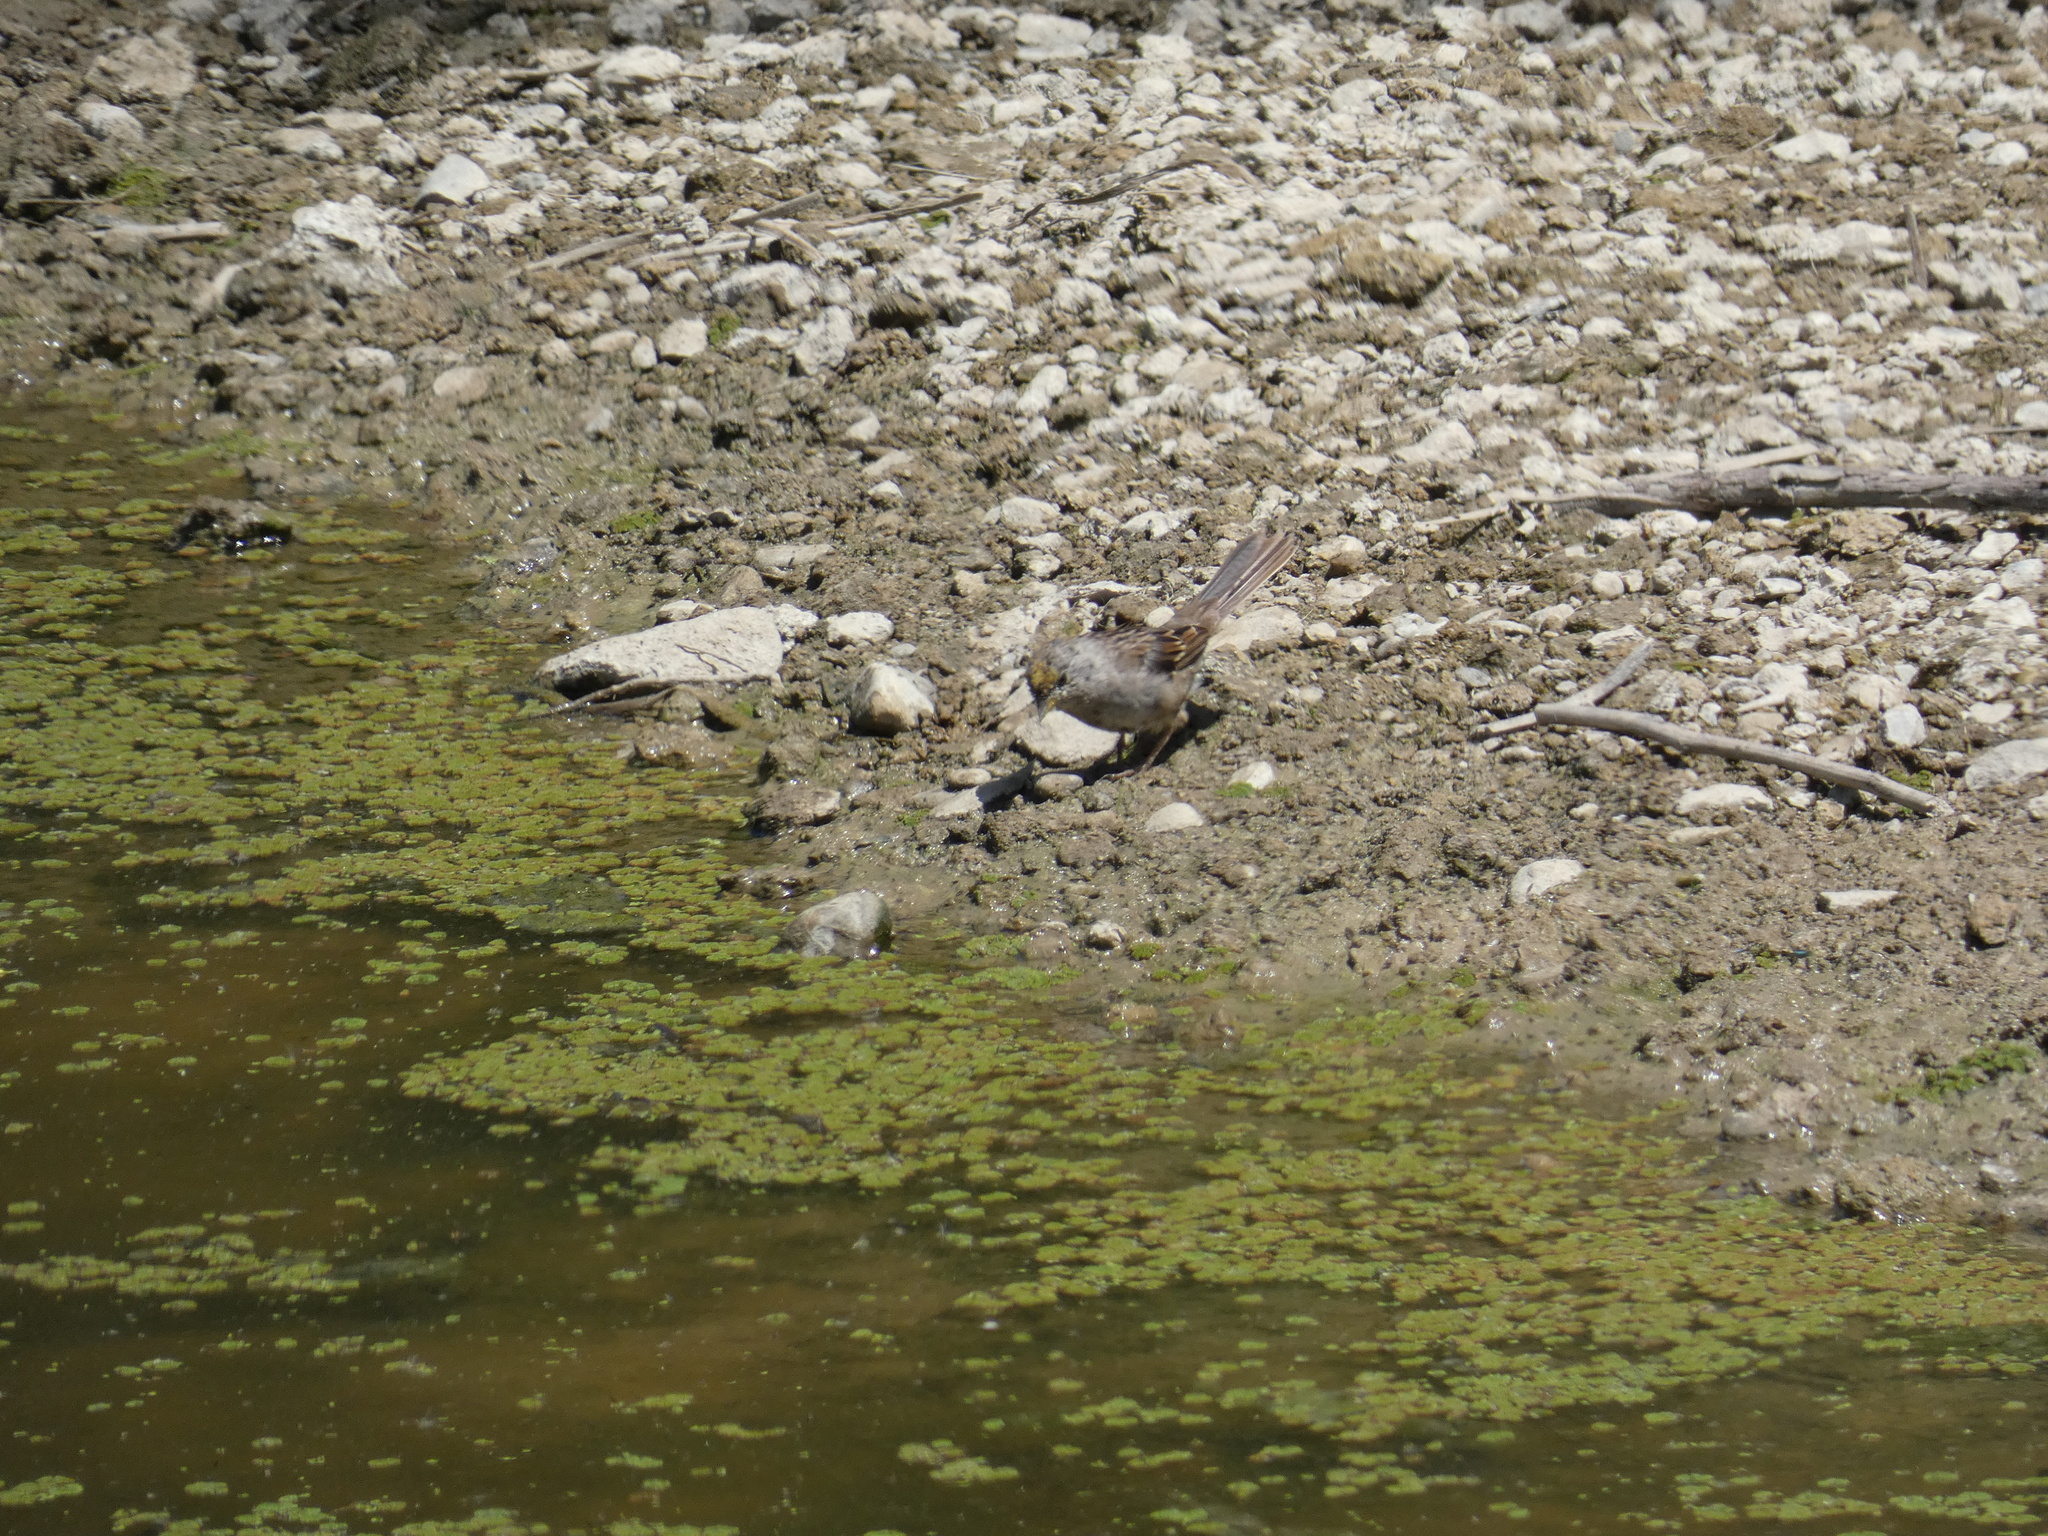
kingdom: Animalia
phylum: Chordata
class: Aves
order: Passeriformes
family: Passerellidae
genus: Zonotrichia
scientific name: Zonotrichia atricapilla
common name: Golden-crowned sparrow
